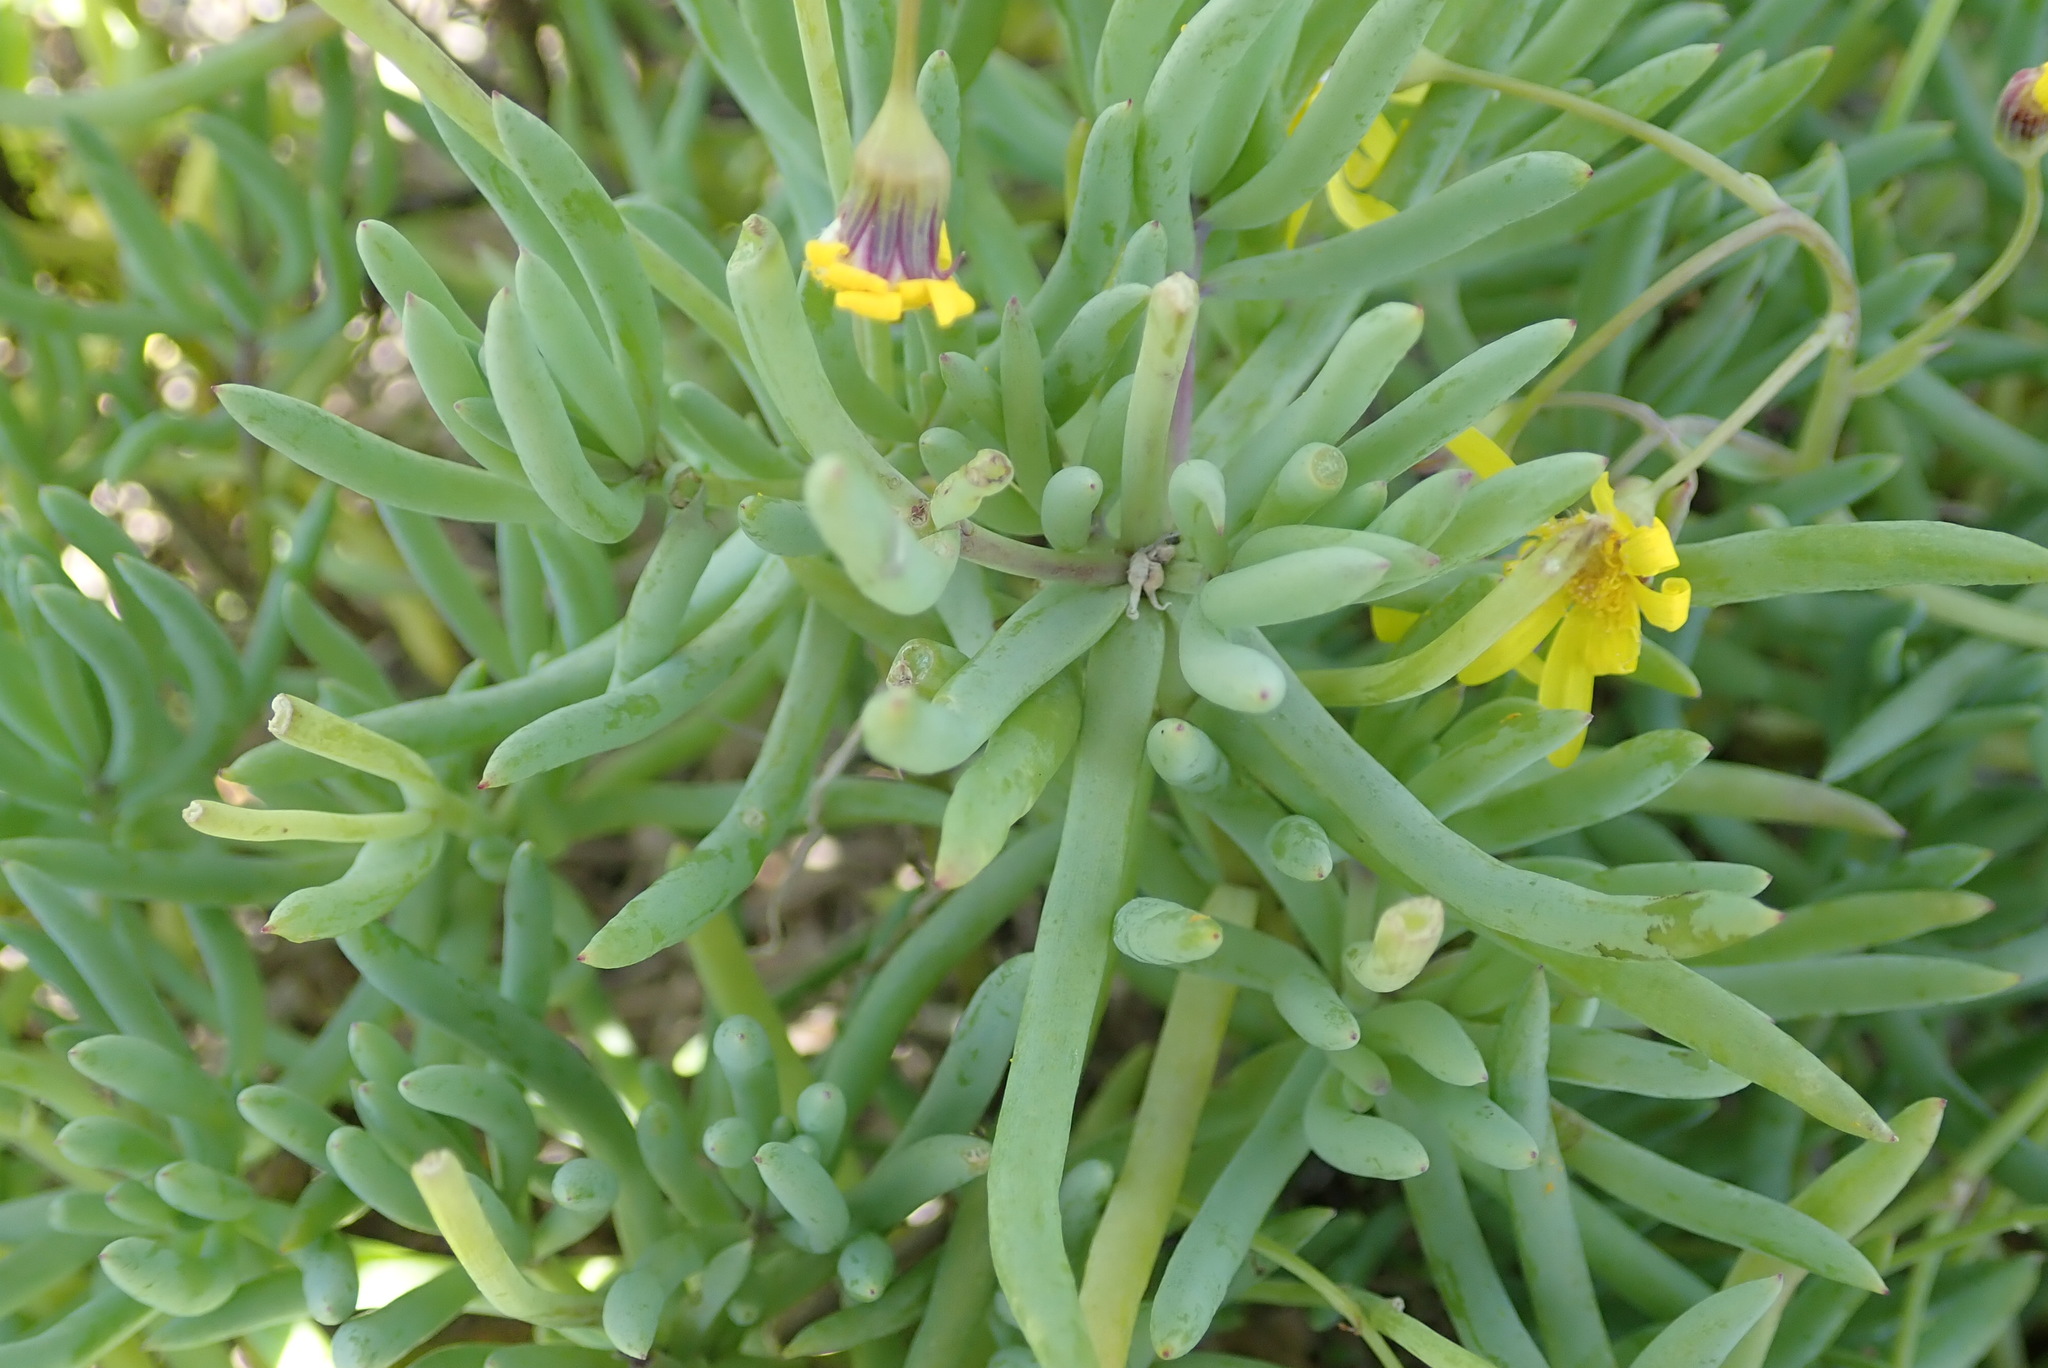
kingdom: Plantae
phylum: Tracheophyta
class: Magnoliopsida
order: Asterales
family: Asteraceae
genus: Crassothonna
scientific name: Crassothonna cylindrica
